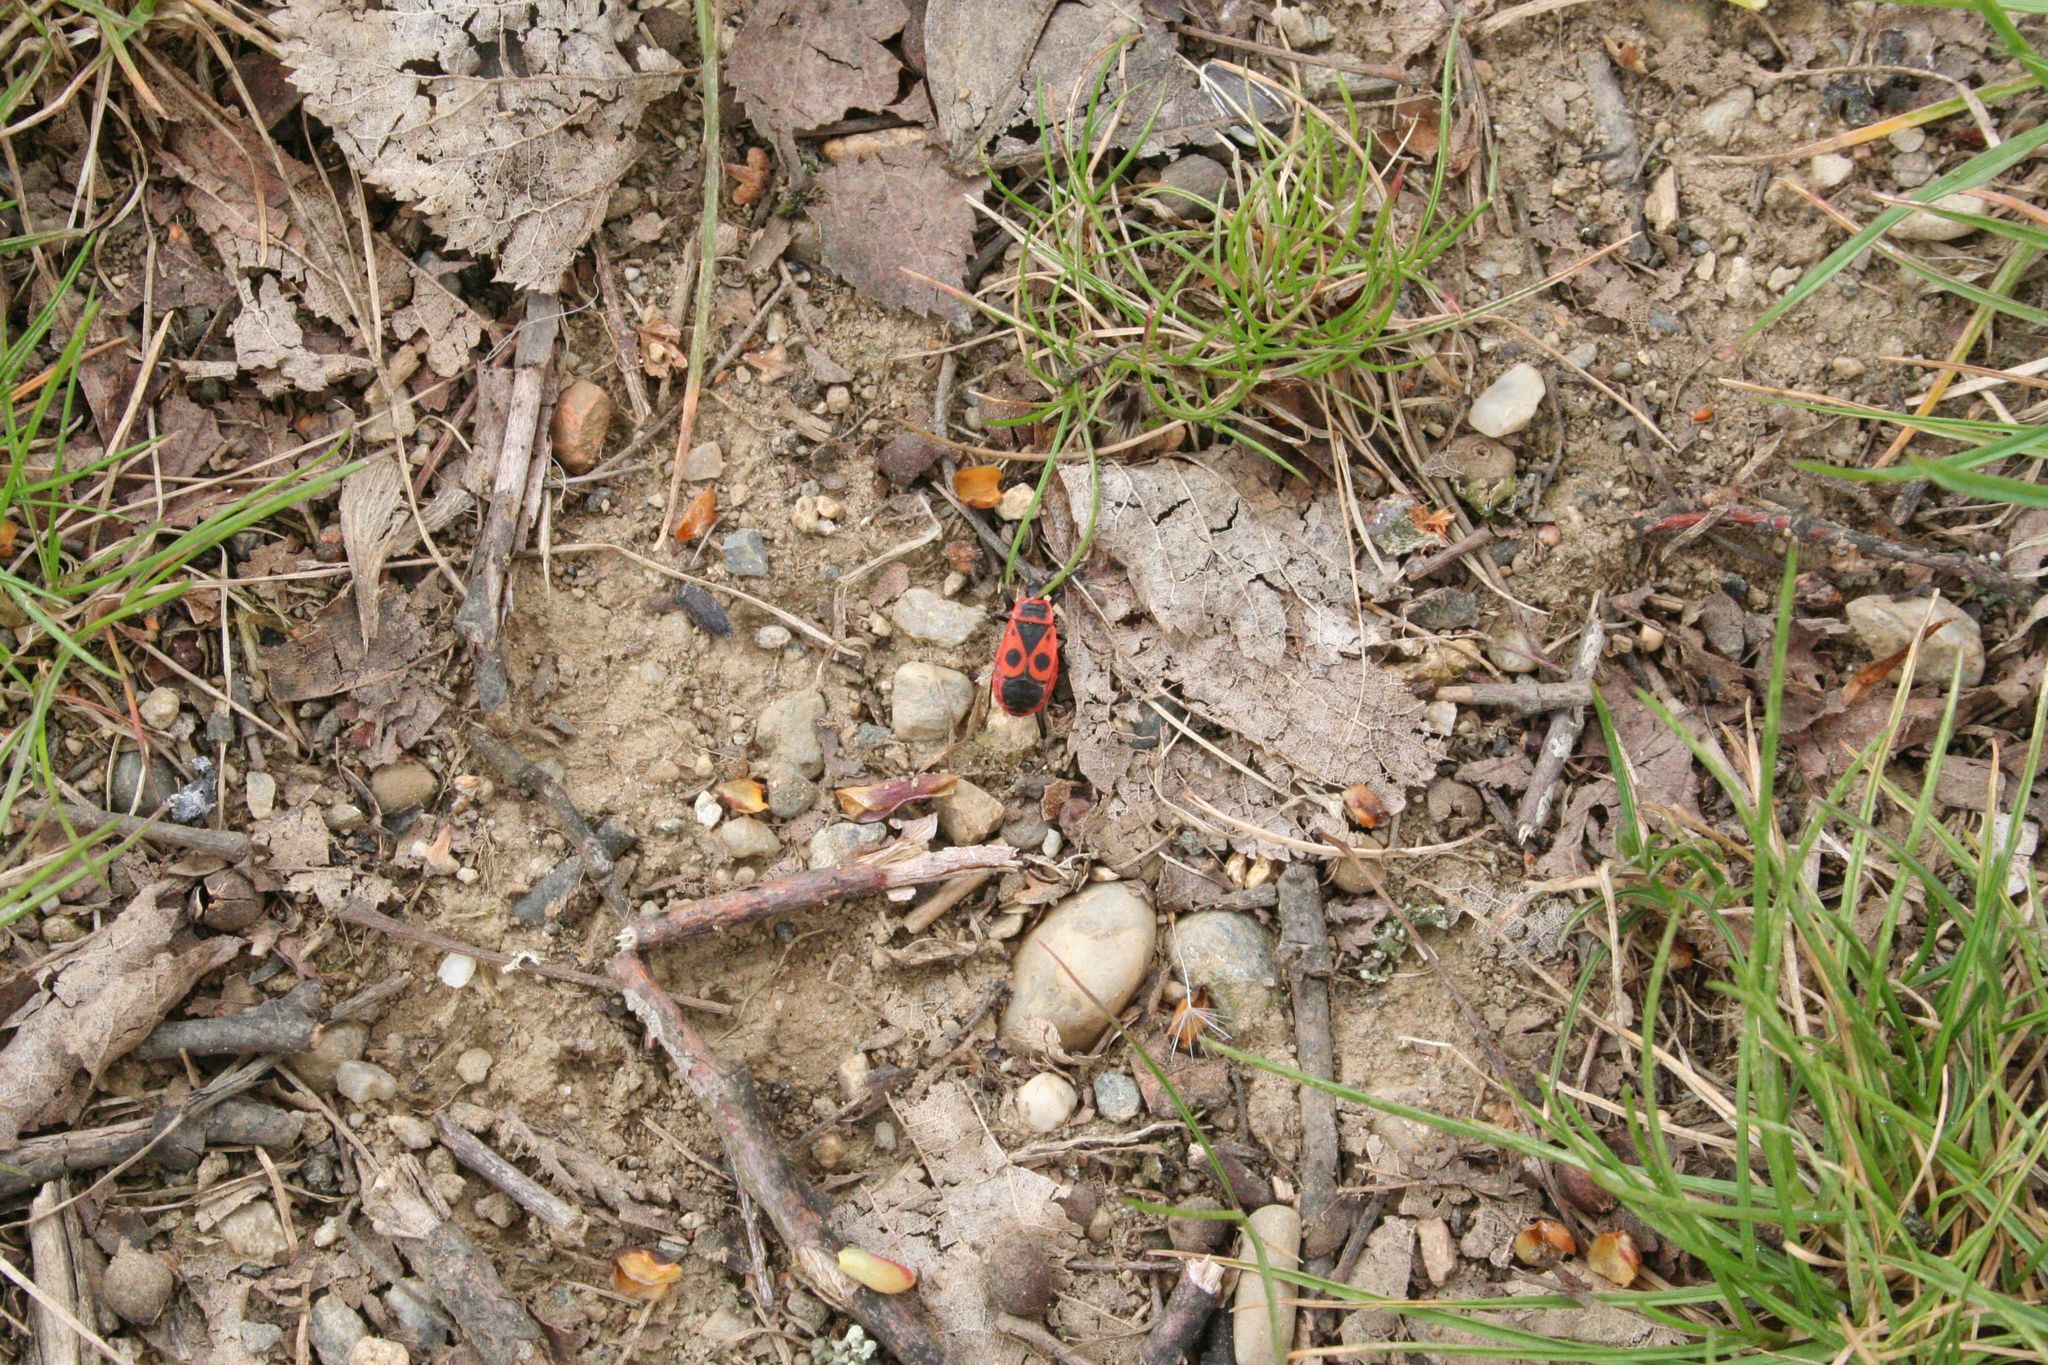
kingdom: Animalia
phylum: Arthropoda
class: Insecta
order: Hemiptera
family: Pyrrhocoridae
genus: Pyrrhocoris
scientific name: Pyrrhocoris apterus
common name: Firebug
